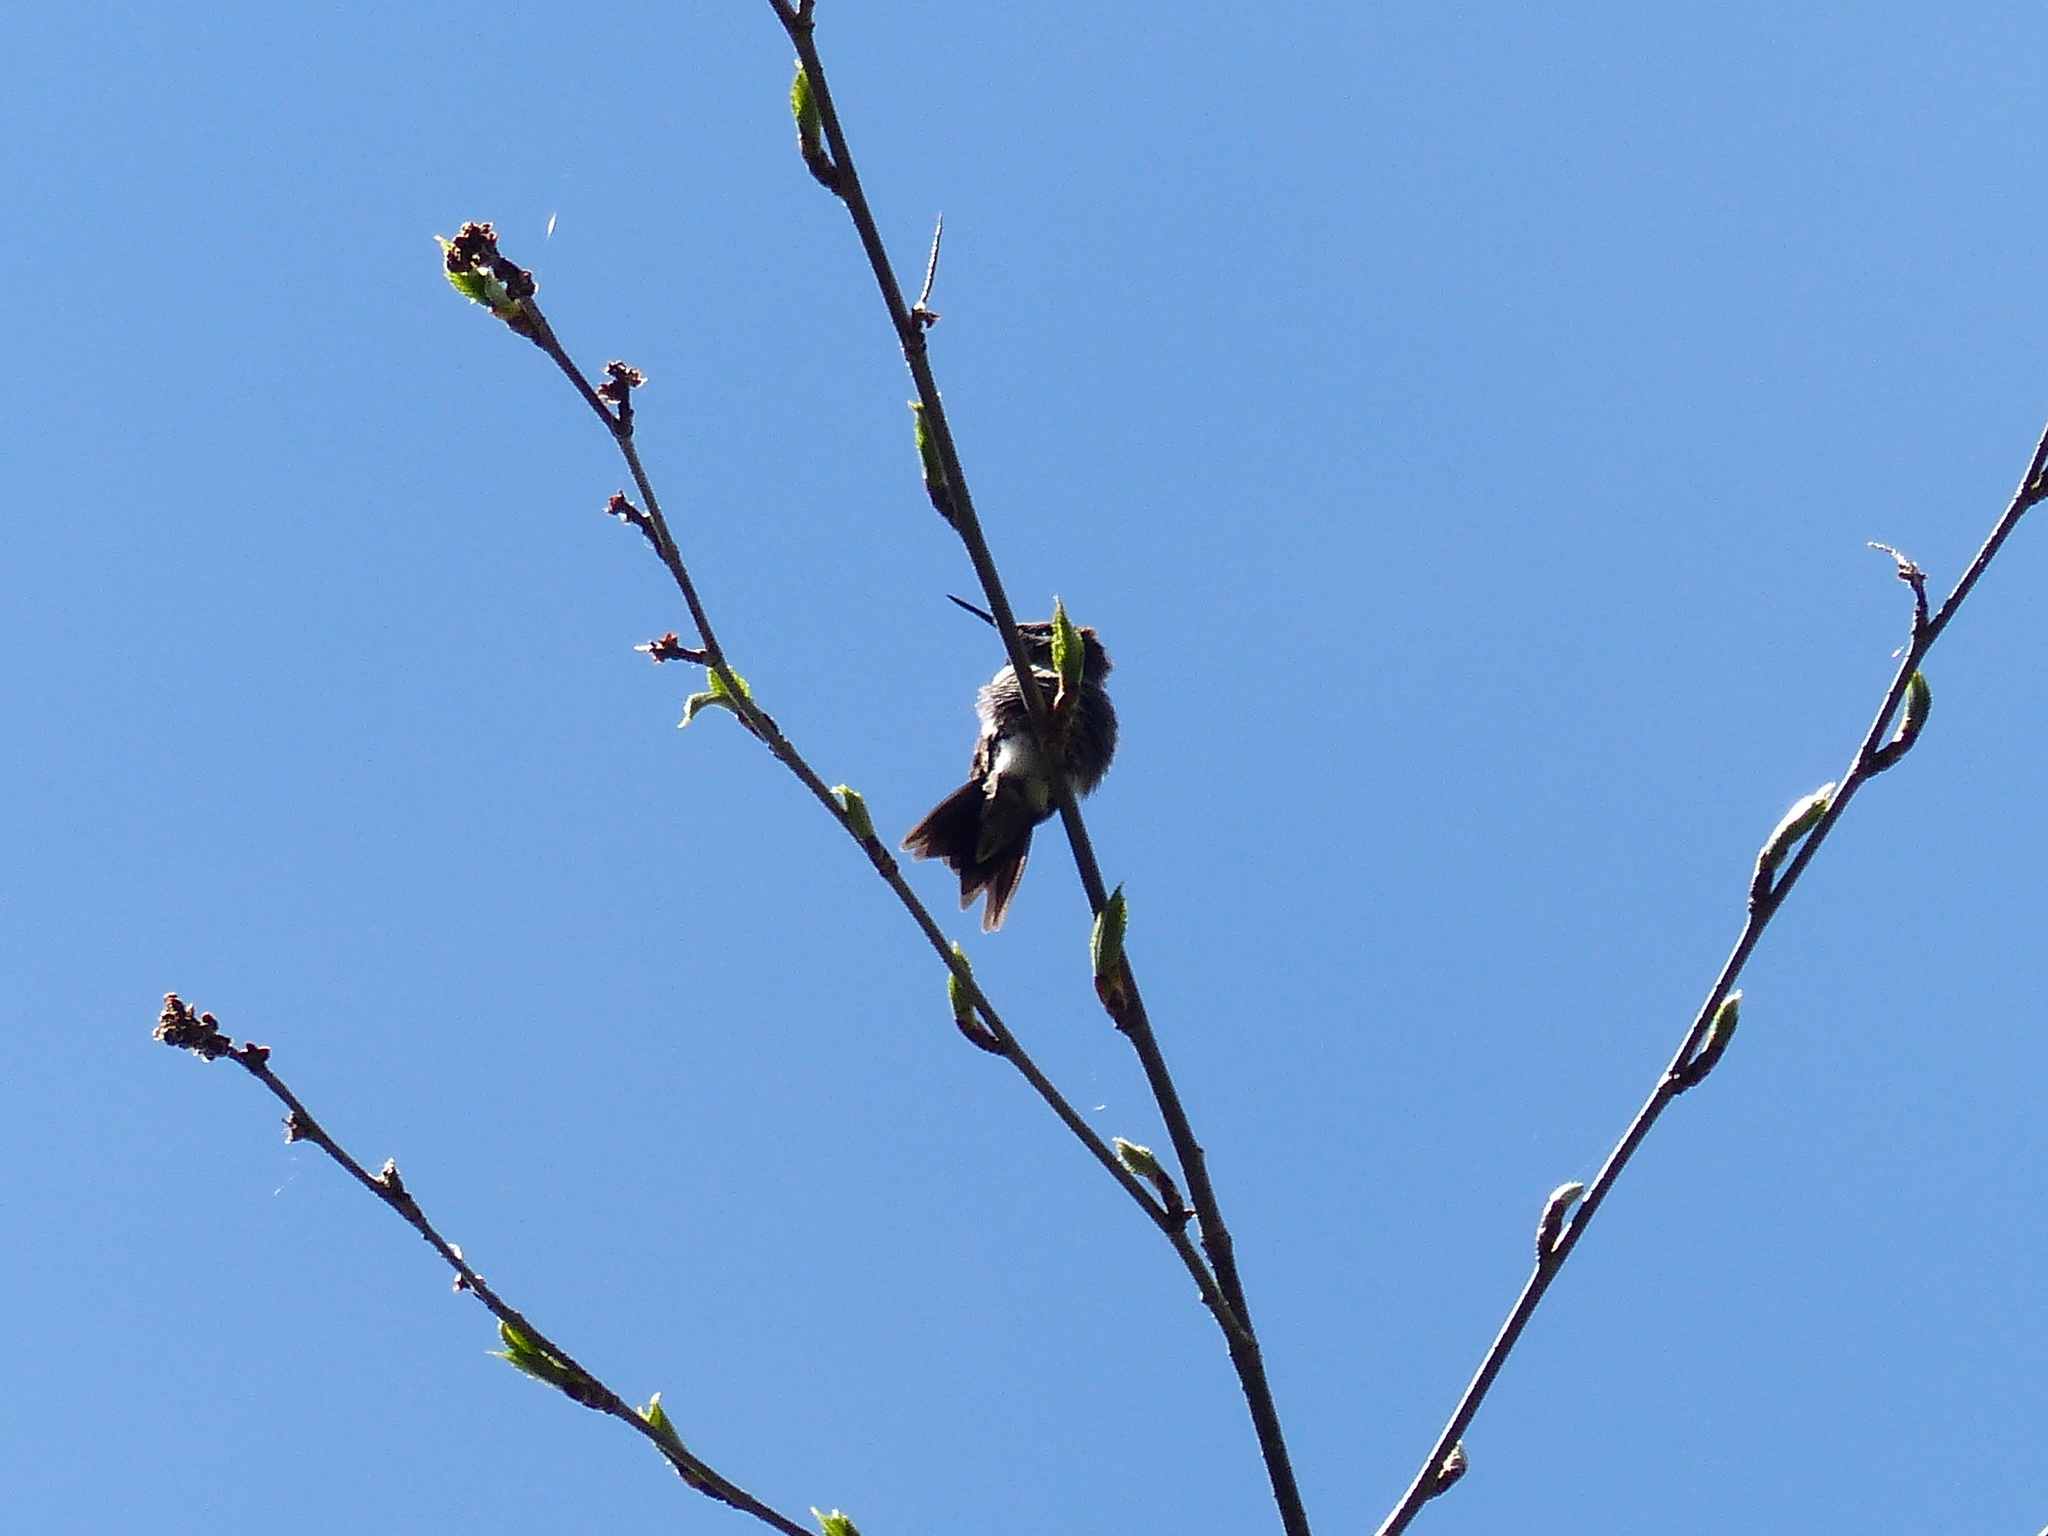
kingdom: Animalia
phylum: Chordata
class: Aves
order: Apodiformes
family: Trochilidae
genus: Archilochus
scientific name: Archilochus colubris
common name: Ruby-throated hummingbird
